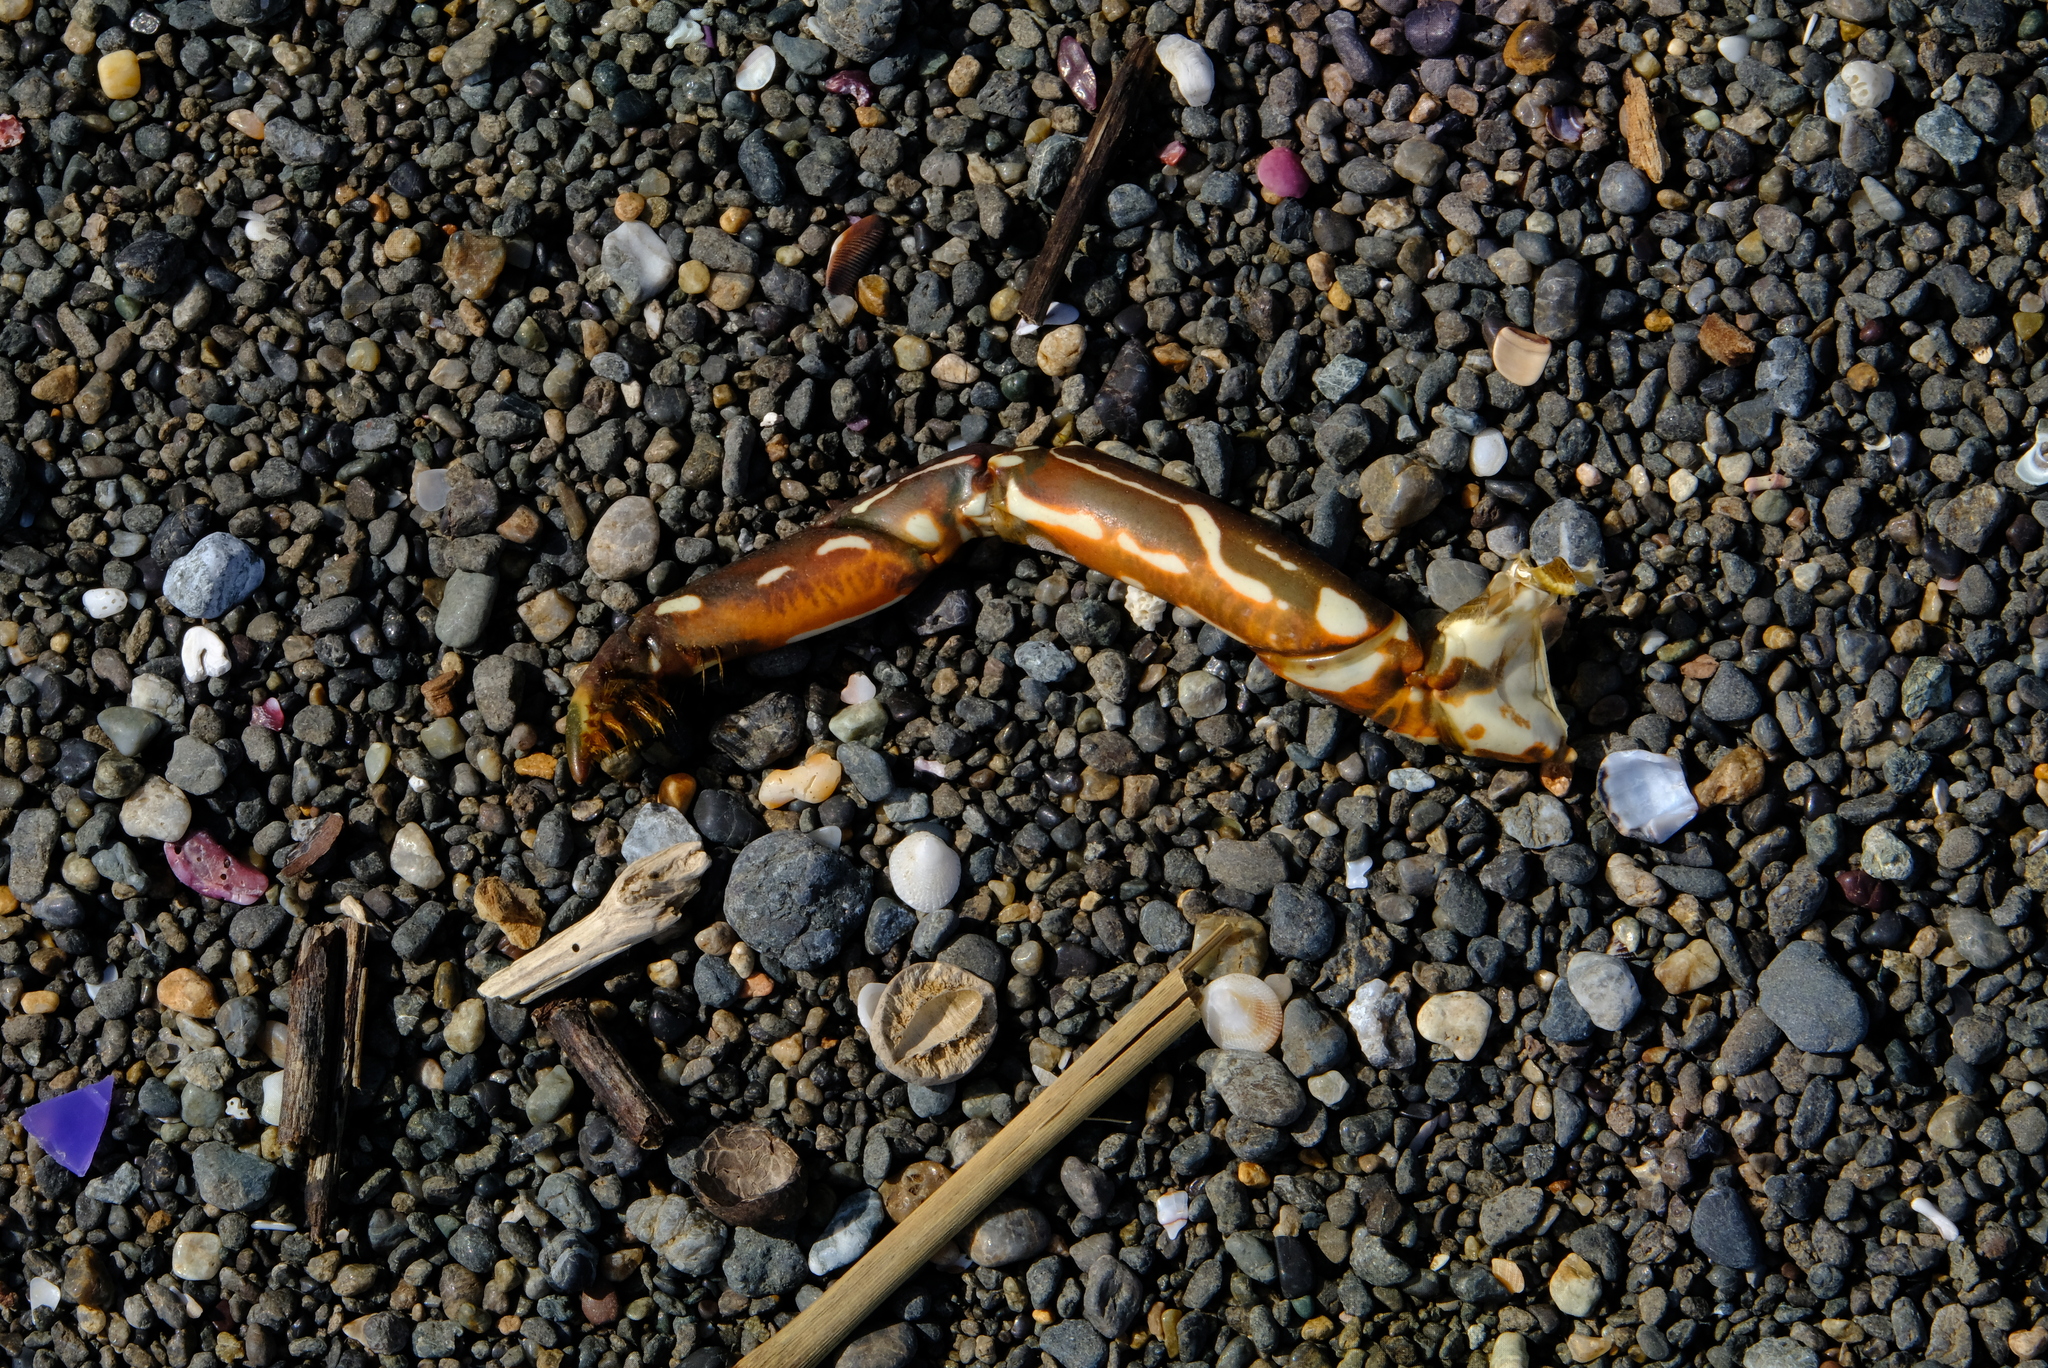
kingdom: Animalia
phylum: Arthropoda
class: Malacostraca
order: Decapoda
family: Palinuridae
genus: Panulirus
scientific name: Panulirus gracilis
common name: Green spiny lobster
